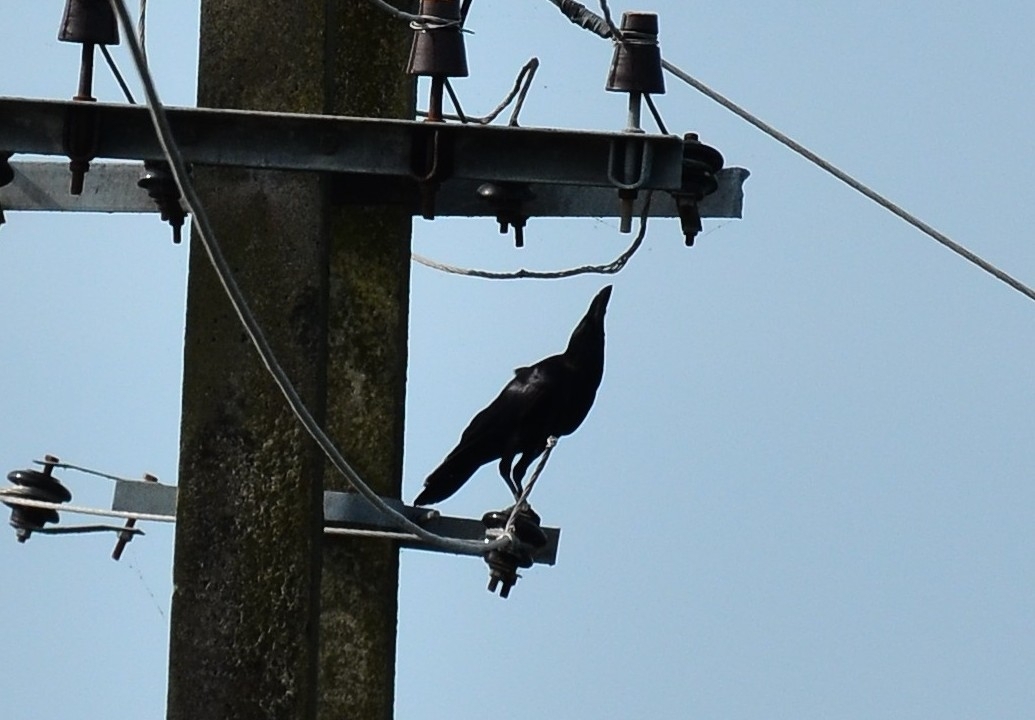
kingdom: Animalia
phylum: Chordata
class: Aves
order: Passeriformes
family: Corvidae
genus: Corvus
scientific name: Corvus macrorhynchos
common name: Large-billed crow
